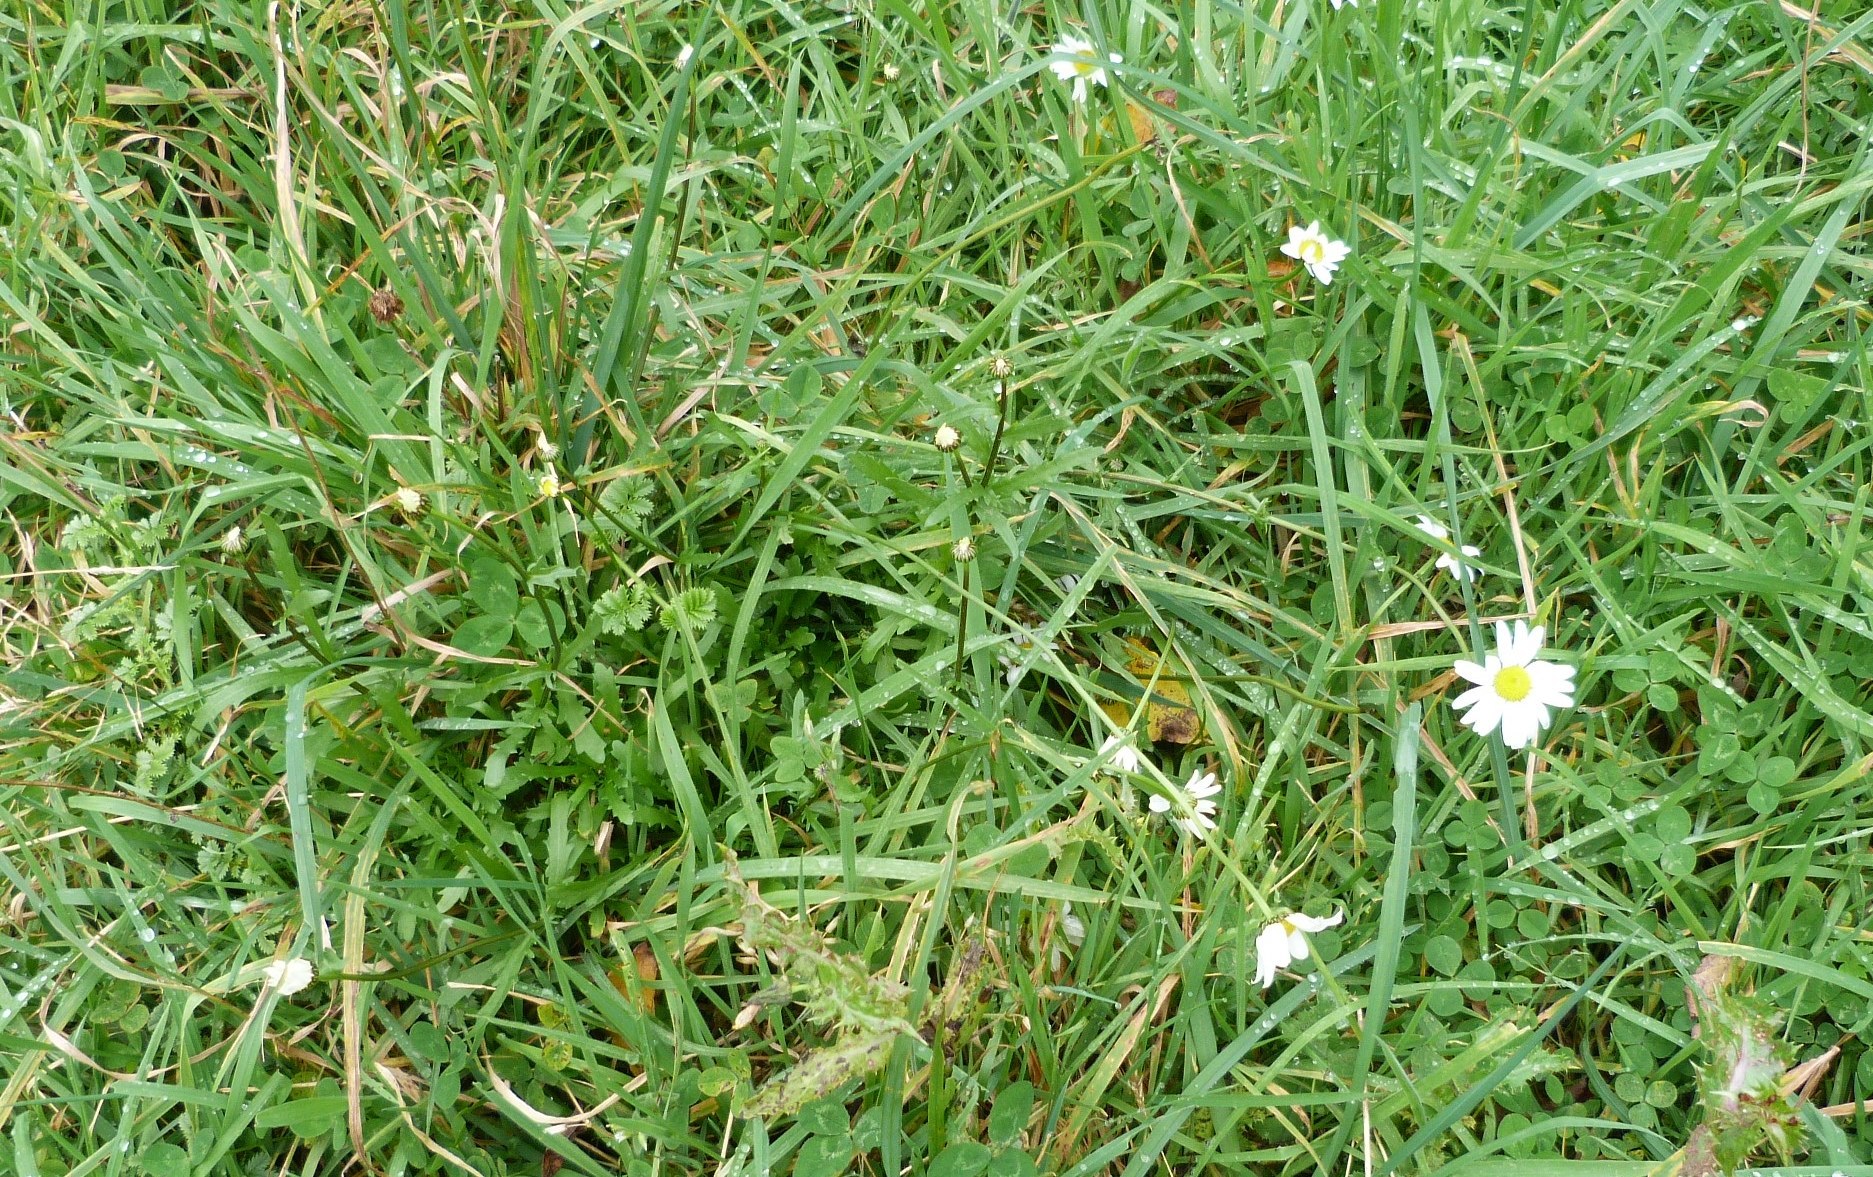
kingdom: Plantae
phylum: Tracheophyta
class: Magnoliopsida
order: Asterales
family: Asteraceae
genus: Leucanthemum
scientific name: Leucanthemum vulgare
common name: Oxeye daisy
